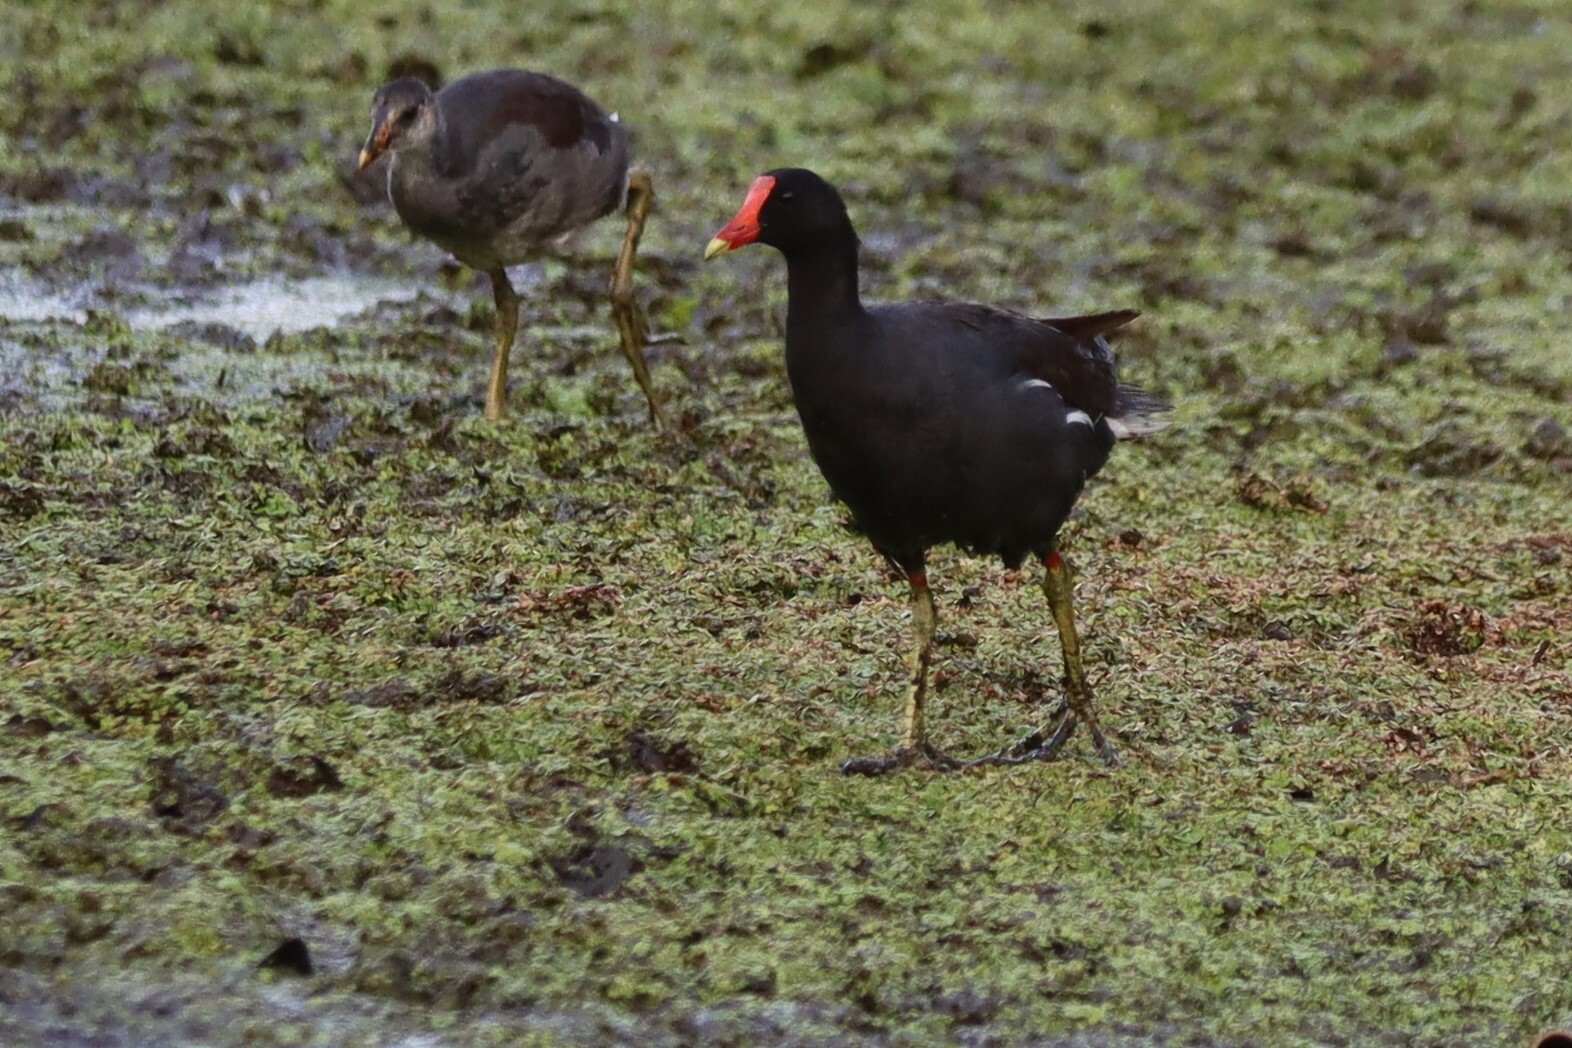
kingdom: Animalia
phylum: Chordata
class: Aves
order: Gruiformes
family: Rallidae
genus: Gallinula
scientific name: Gallinula chloropus
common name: Common moorhen
